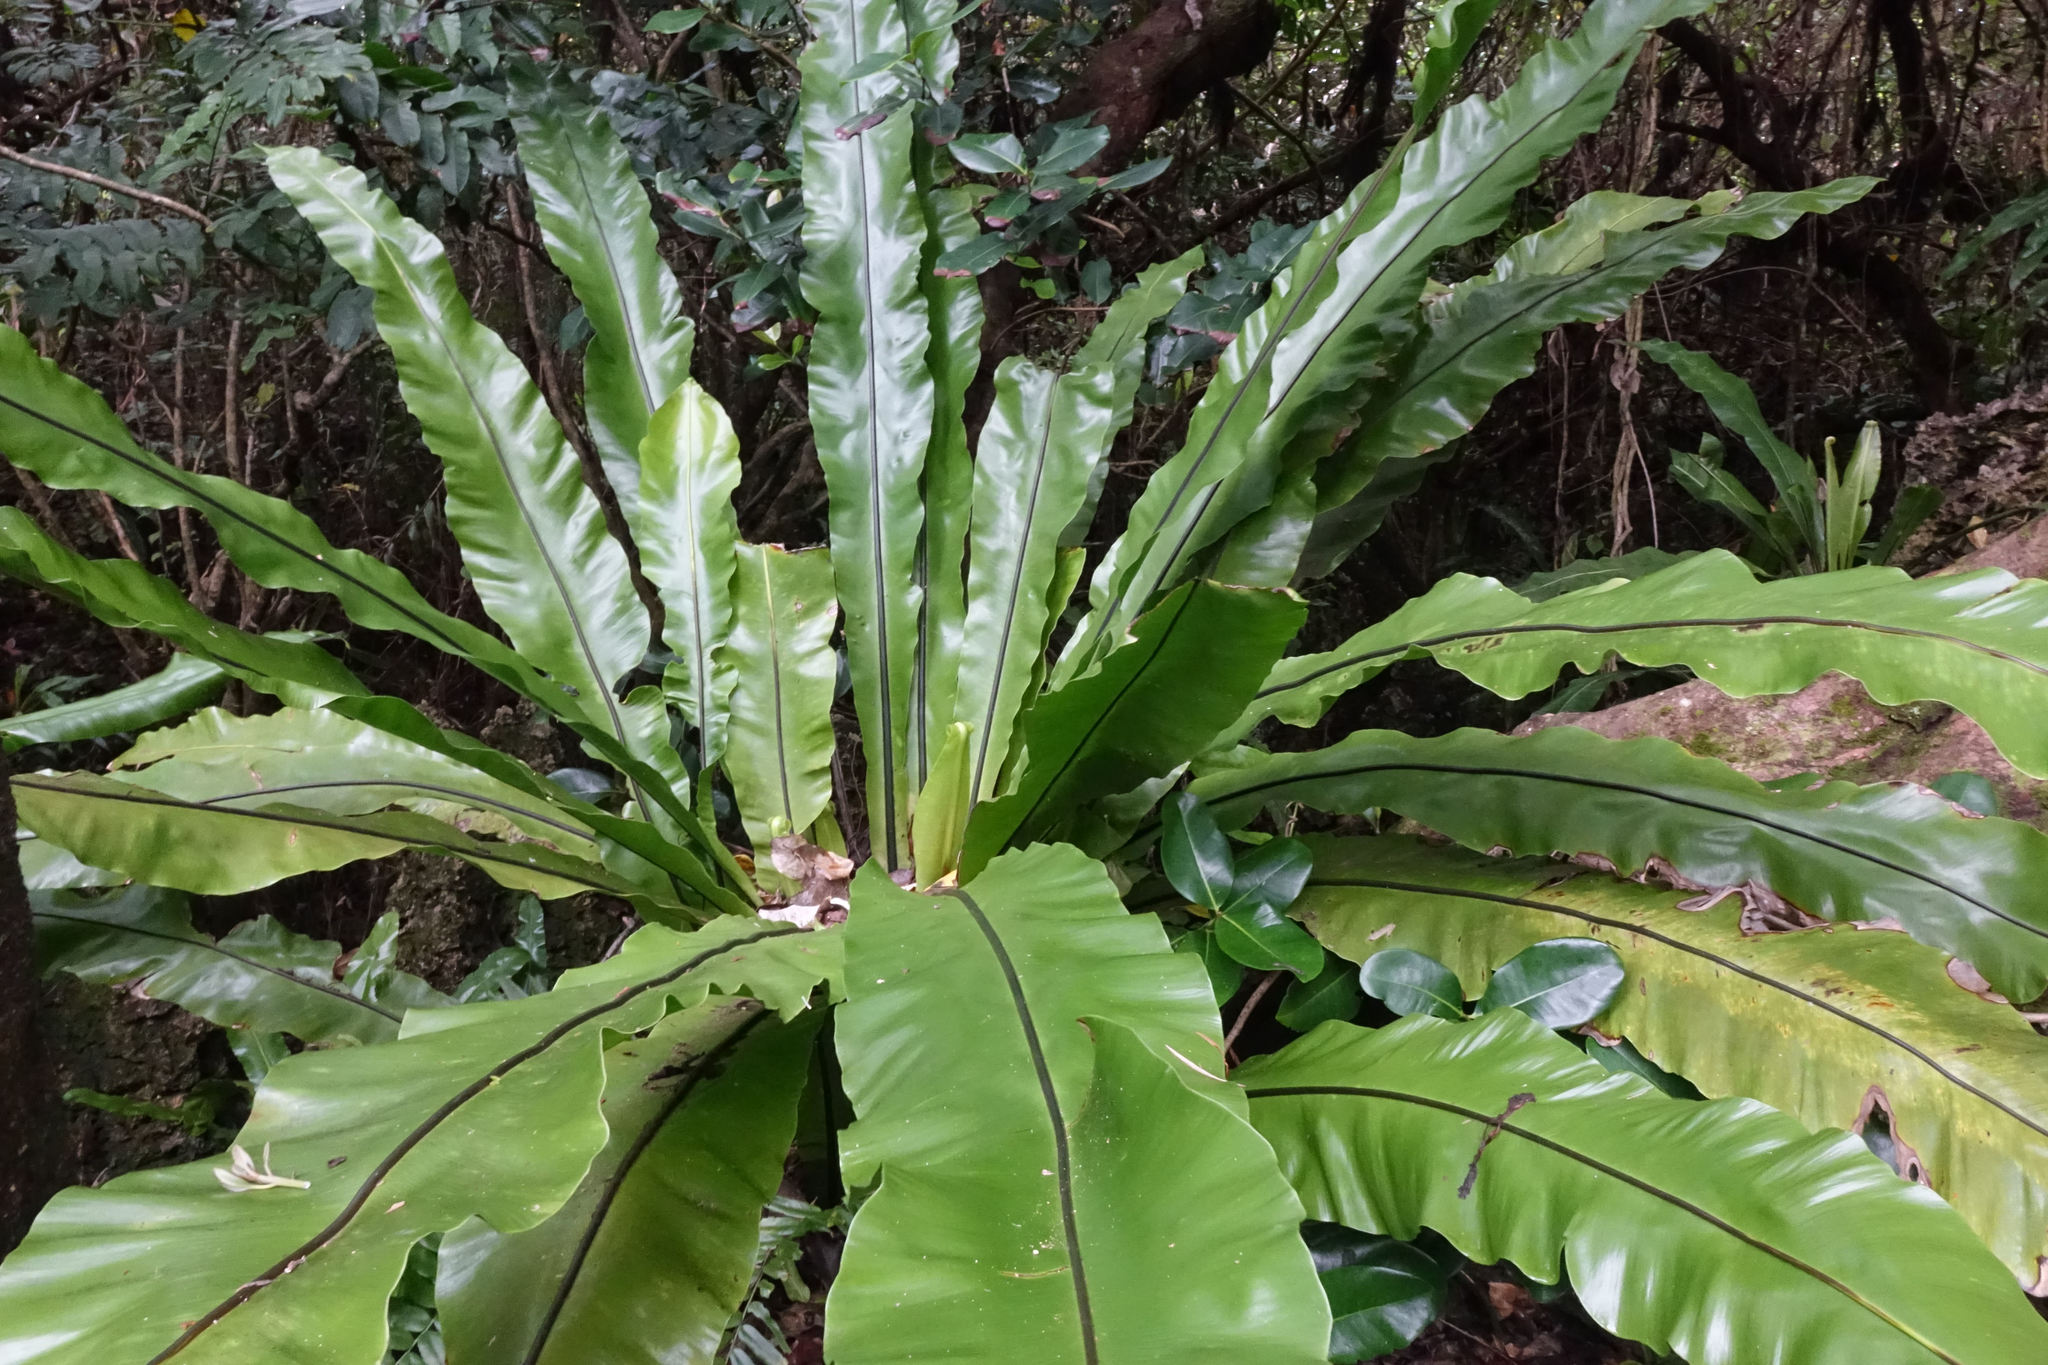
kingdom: Plantae
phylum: Tracheophyta
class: Polypodiopsida
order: Polypodiales
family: Aspleniaceae
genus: Asplenium
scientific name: Asplenium nidus
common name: Bird's-nest fern
